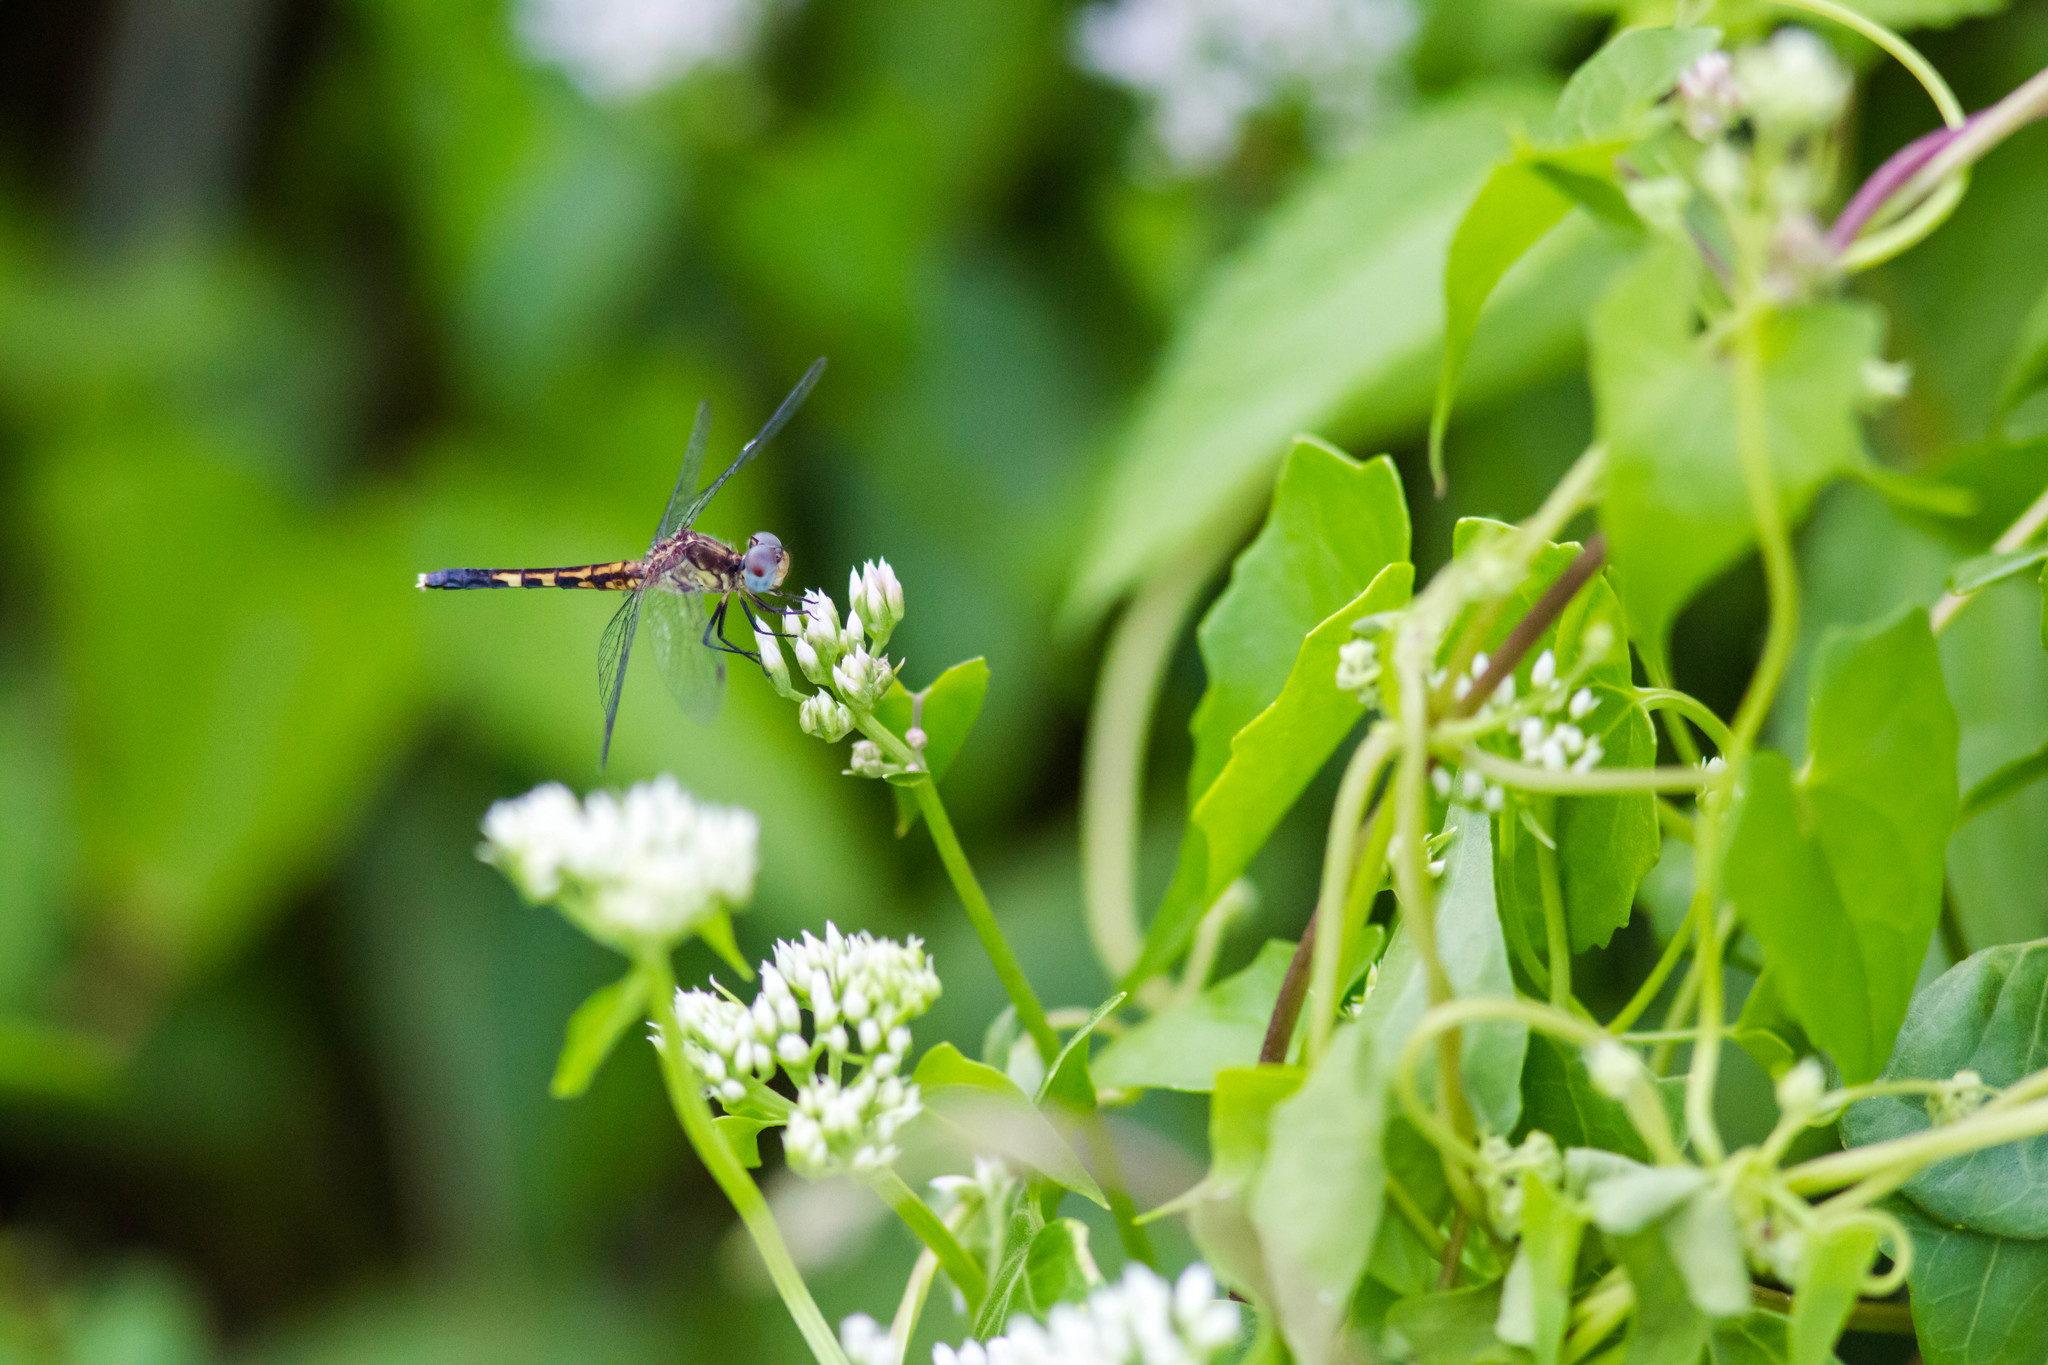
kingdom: Animalia
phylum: Arthropoda
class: Insecta
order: Odonata
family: Libellulidae
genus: Erythrodiplax
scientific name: Erythrodiplax minuscula
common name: Little blue dragonlet
